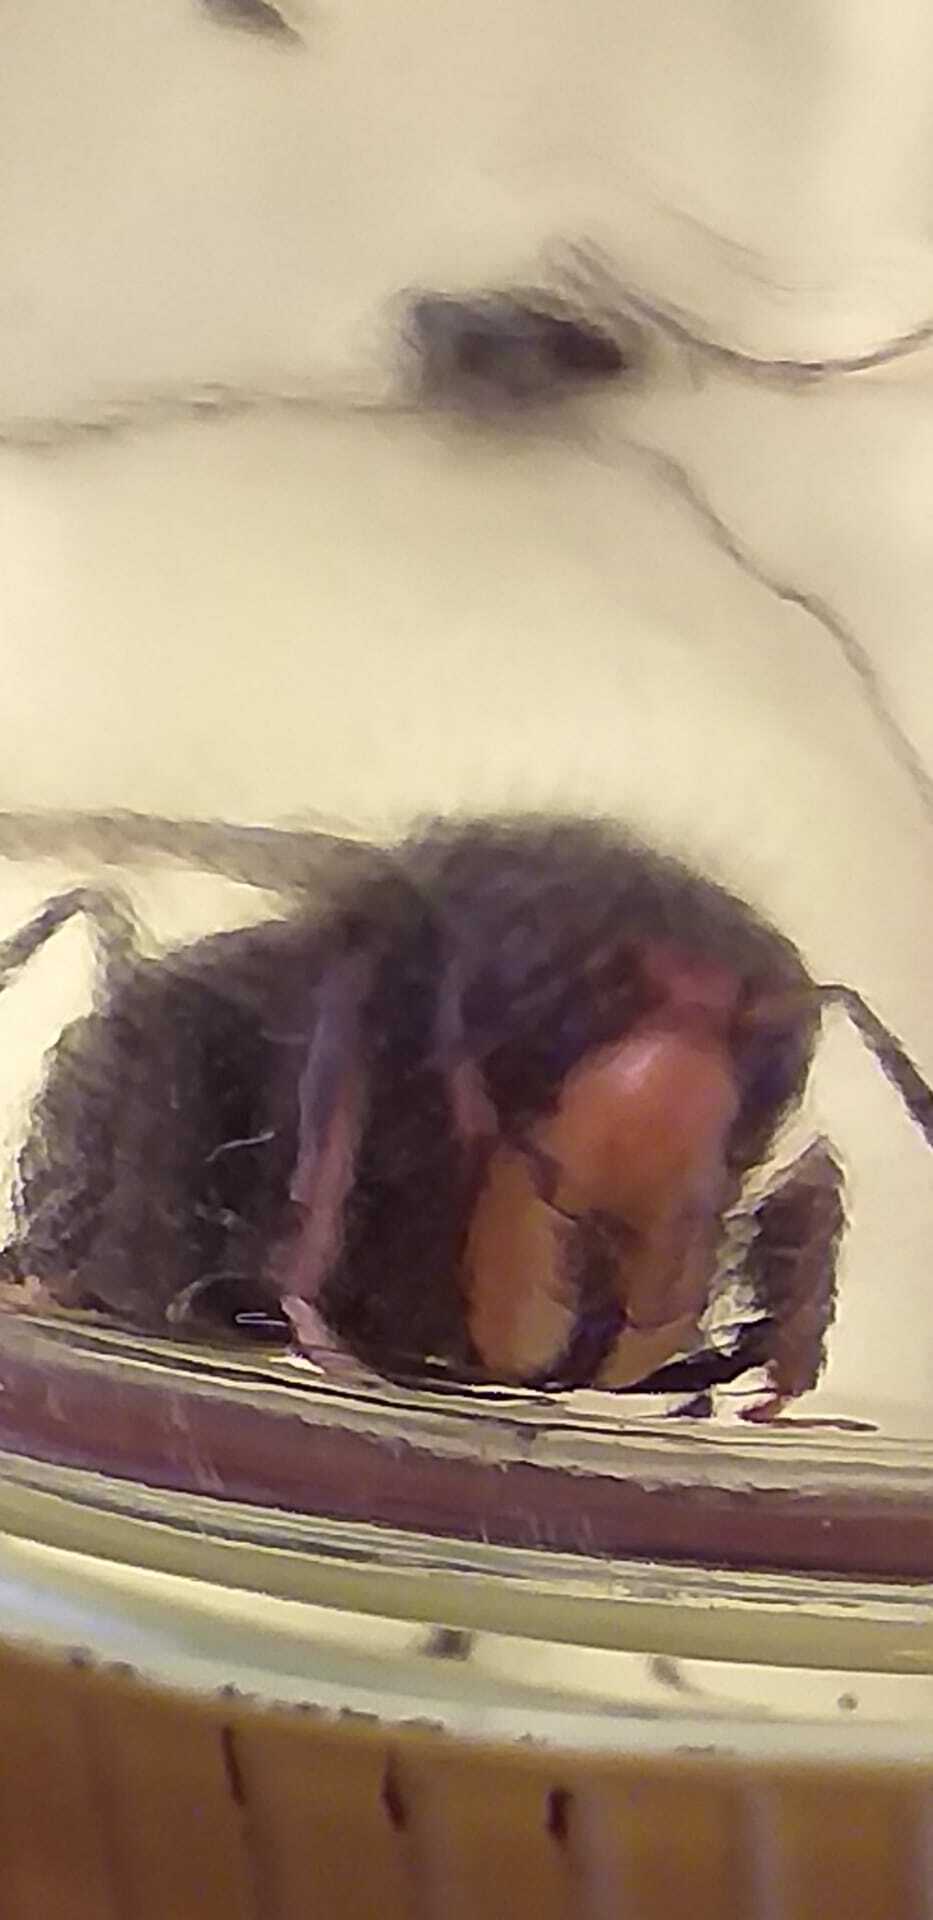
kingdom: Animalia
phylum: Arthropoda
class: Insecta
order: Hymenoptera
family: Vespidae
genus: Vespa
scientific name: Vespa velutina
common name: Asian hornet
